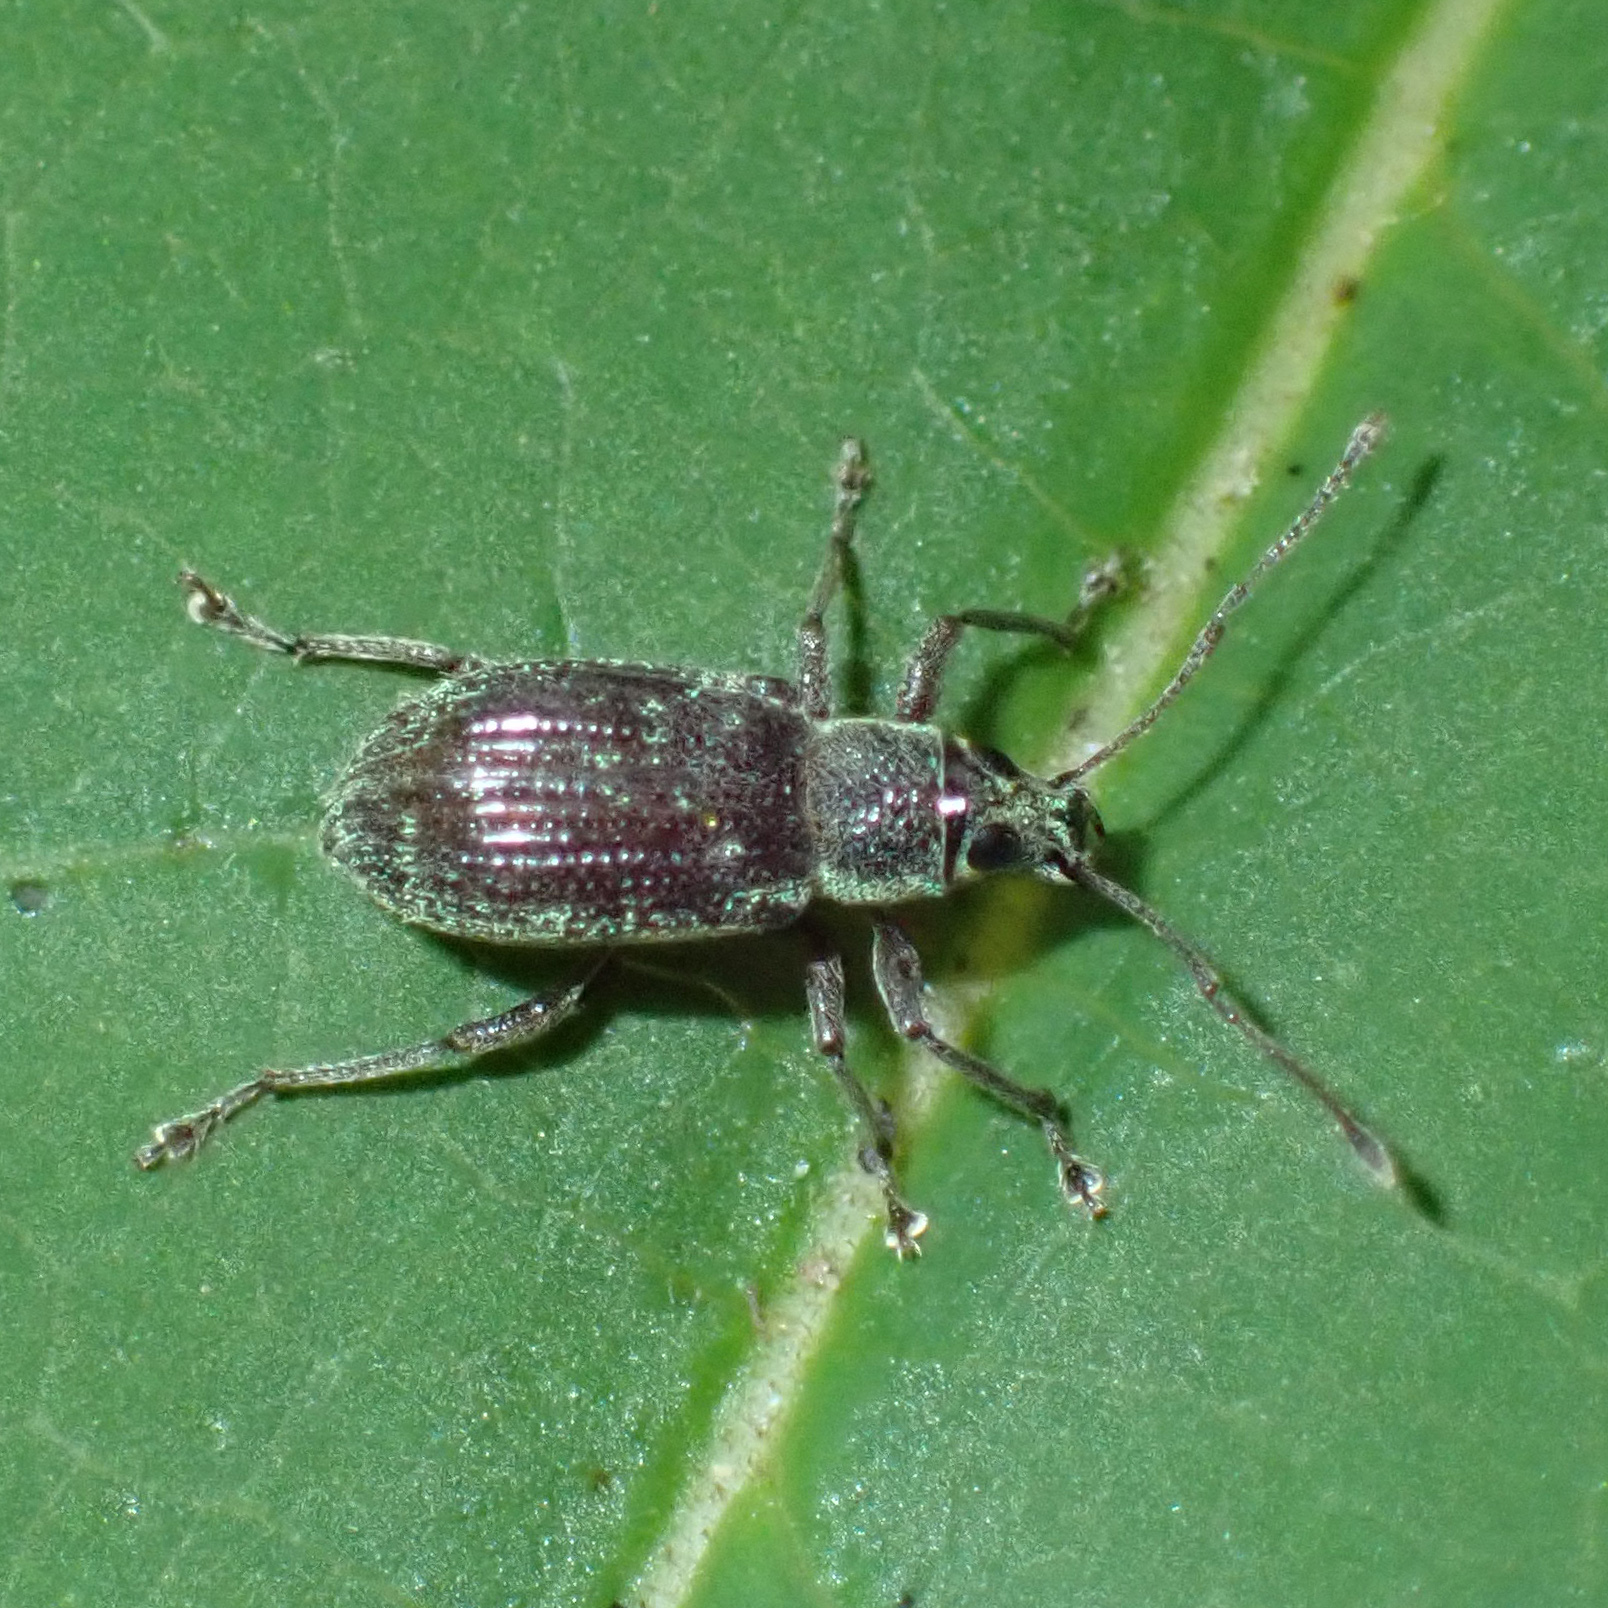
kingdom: Animalia
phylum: Arthropoda
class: Insecta
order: Coleoptera
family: Curculionidae
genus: Cyrtepistomus
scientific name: Cyrtepistomus castaneus
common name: Weevil
